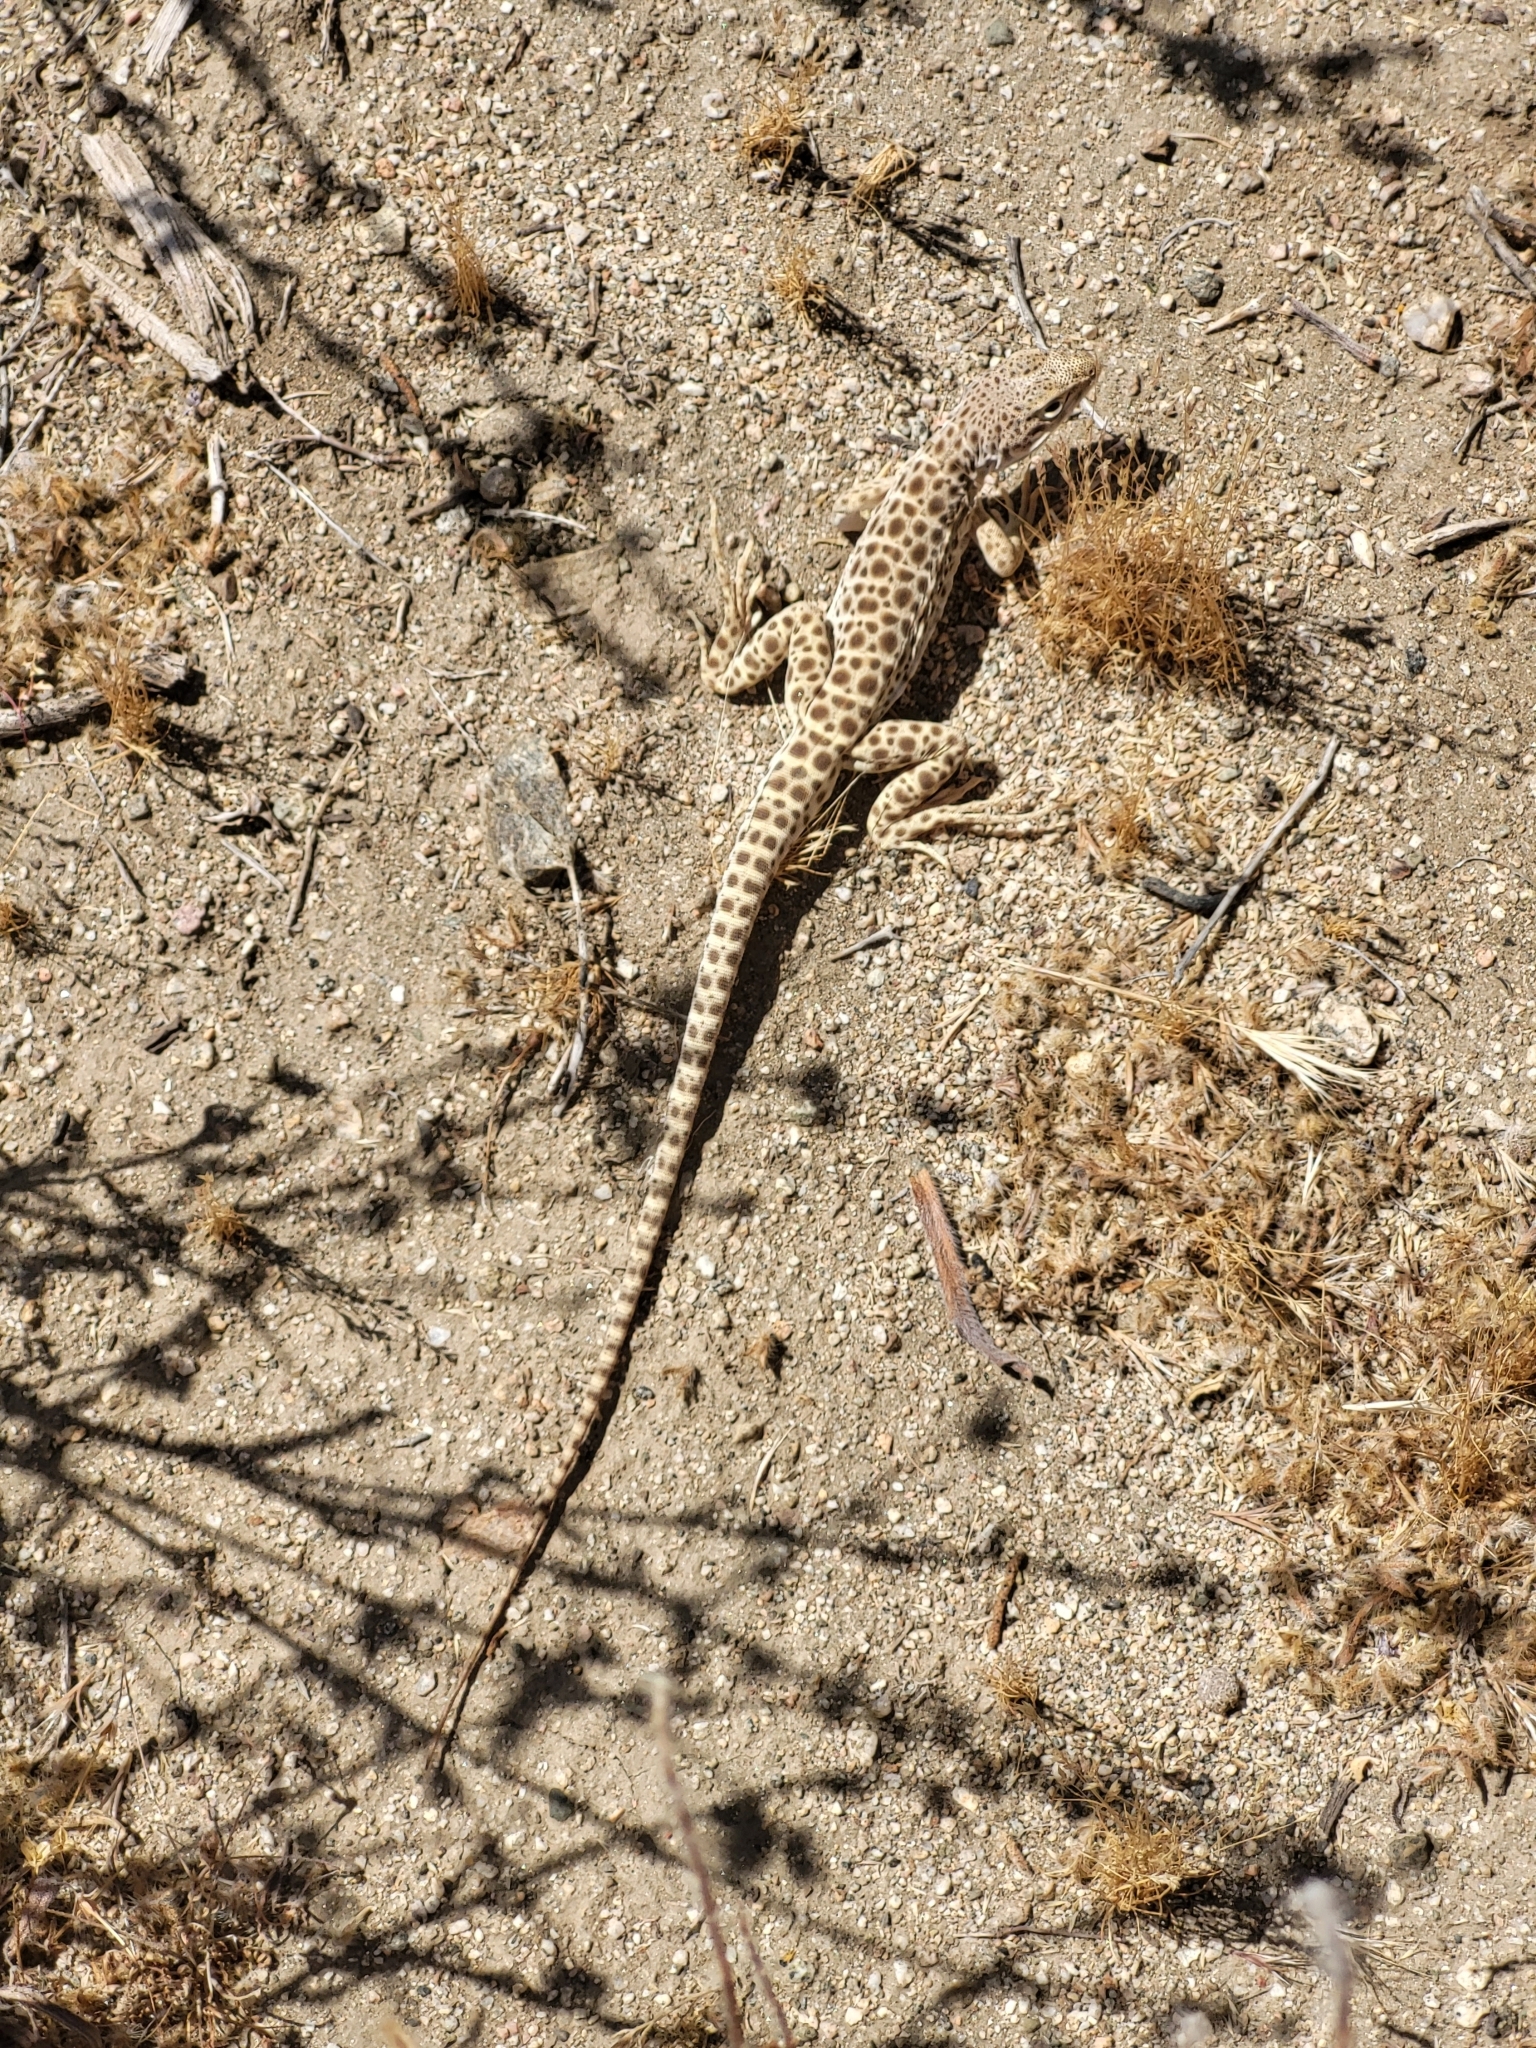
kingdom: Animalia
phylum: Chordata
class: Squamata
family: Crotaphytidae
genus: Gambelia
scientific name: Gambelia wislizenii
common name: Longnose leopard lizard
